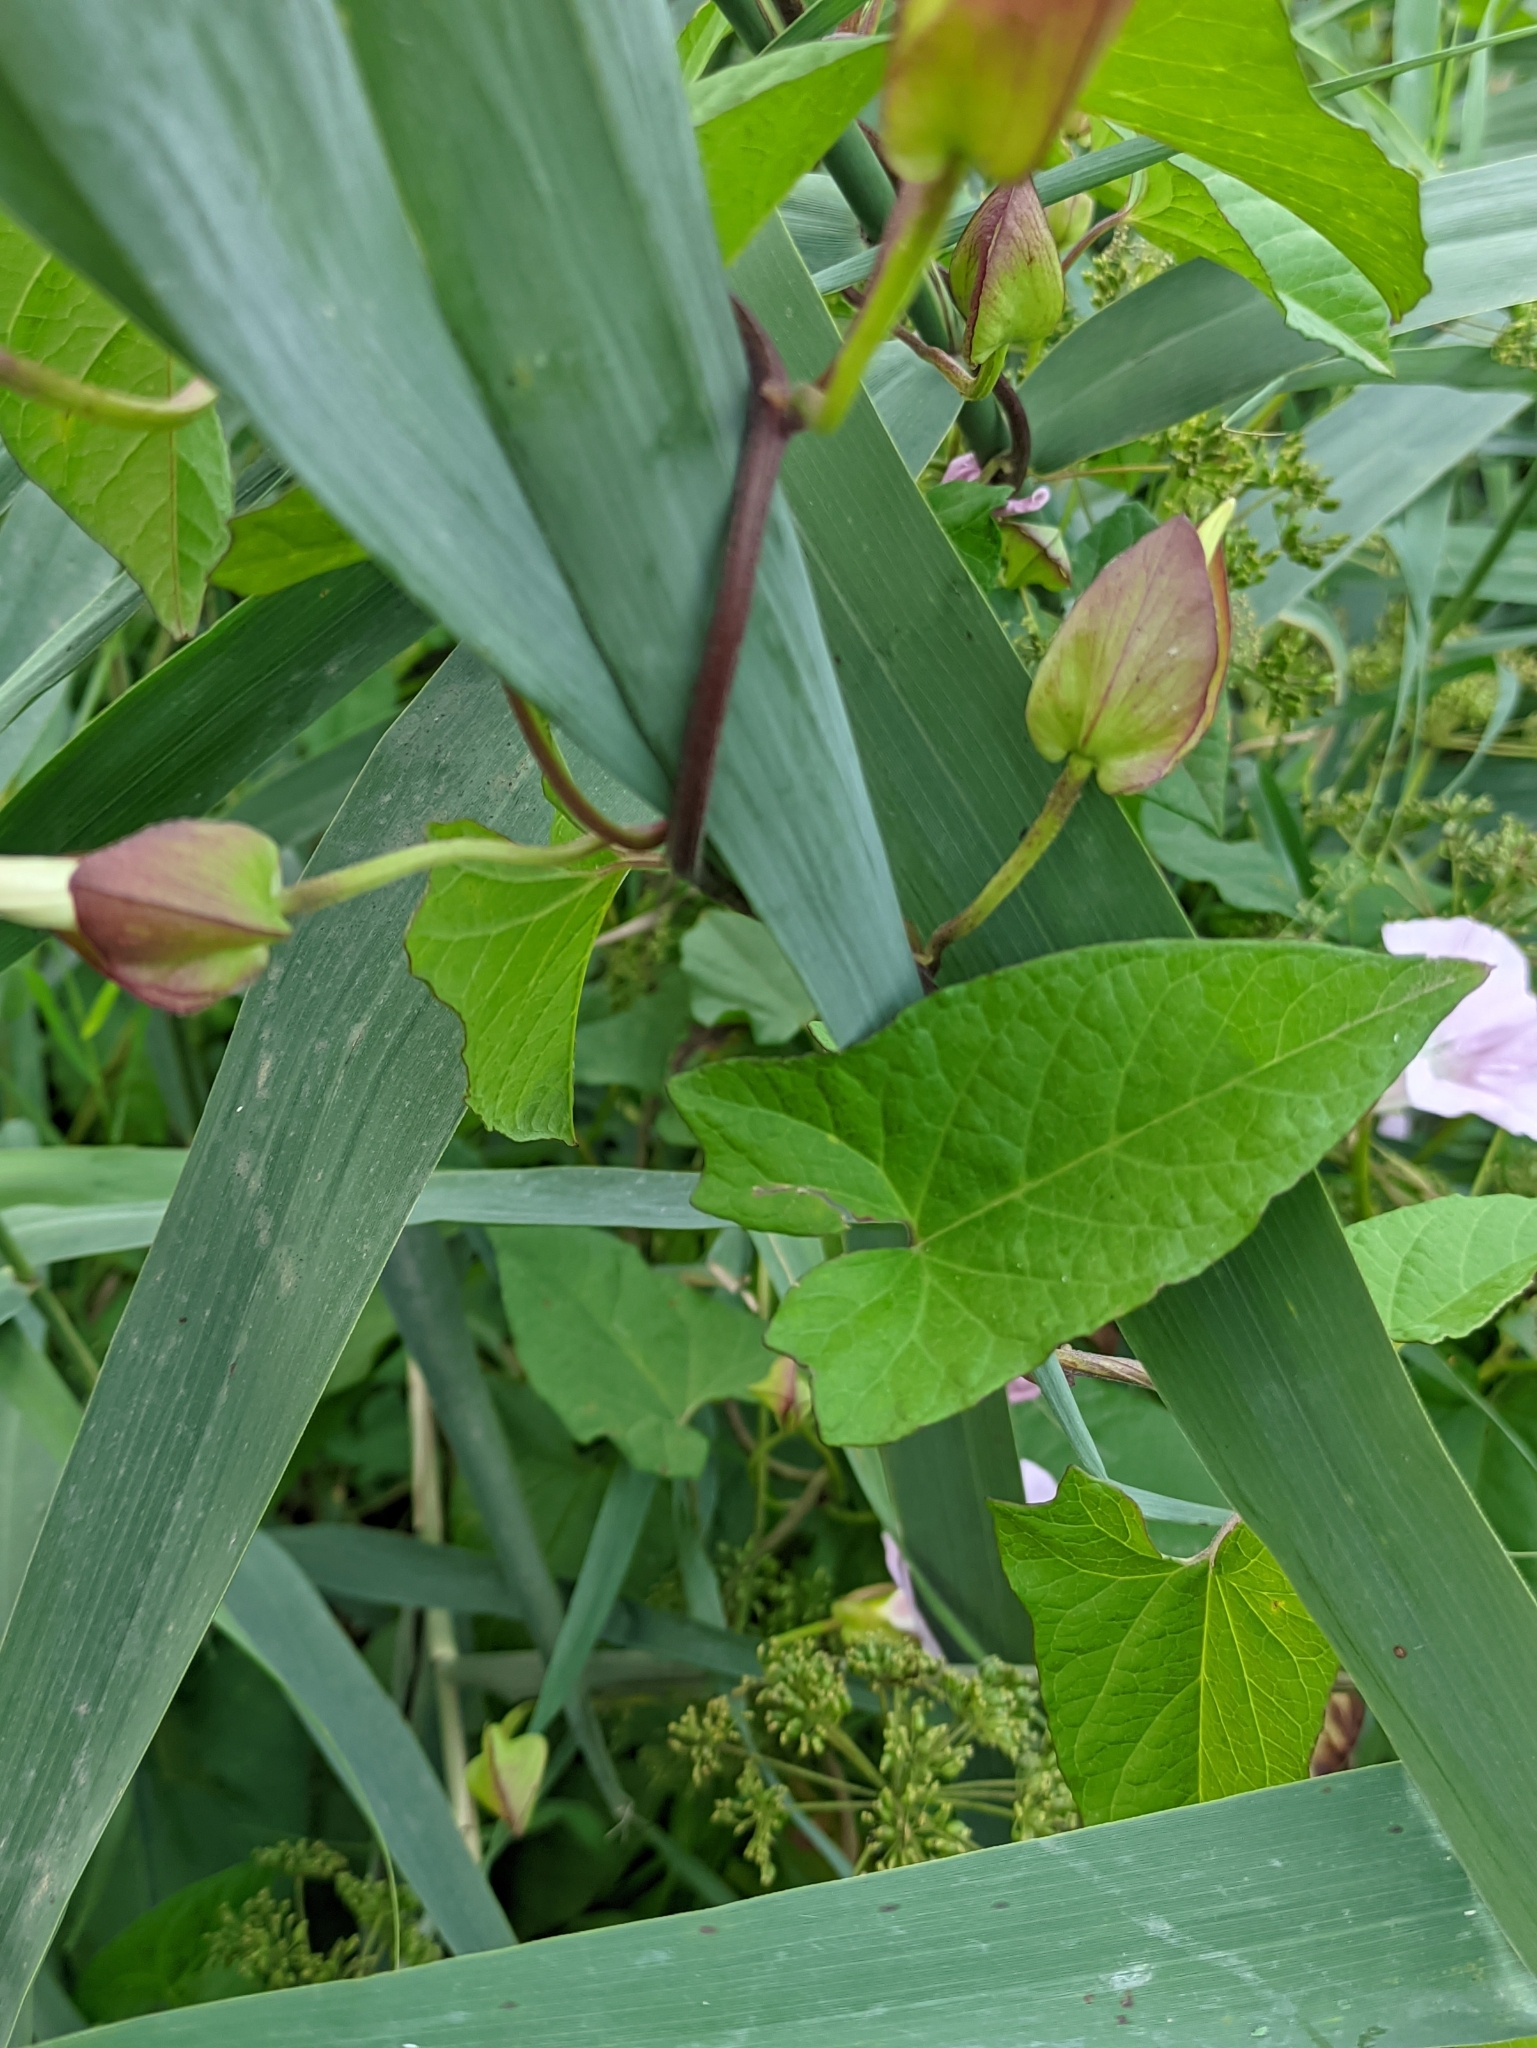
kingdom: Plantae
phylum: Tracheophyta
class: Magnoliopsida
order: Solanales
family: Convolvulaceae
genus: Calystegia
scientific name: Calystegia sepium
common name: Hedge bindweed
